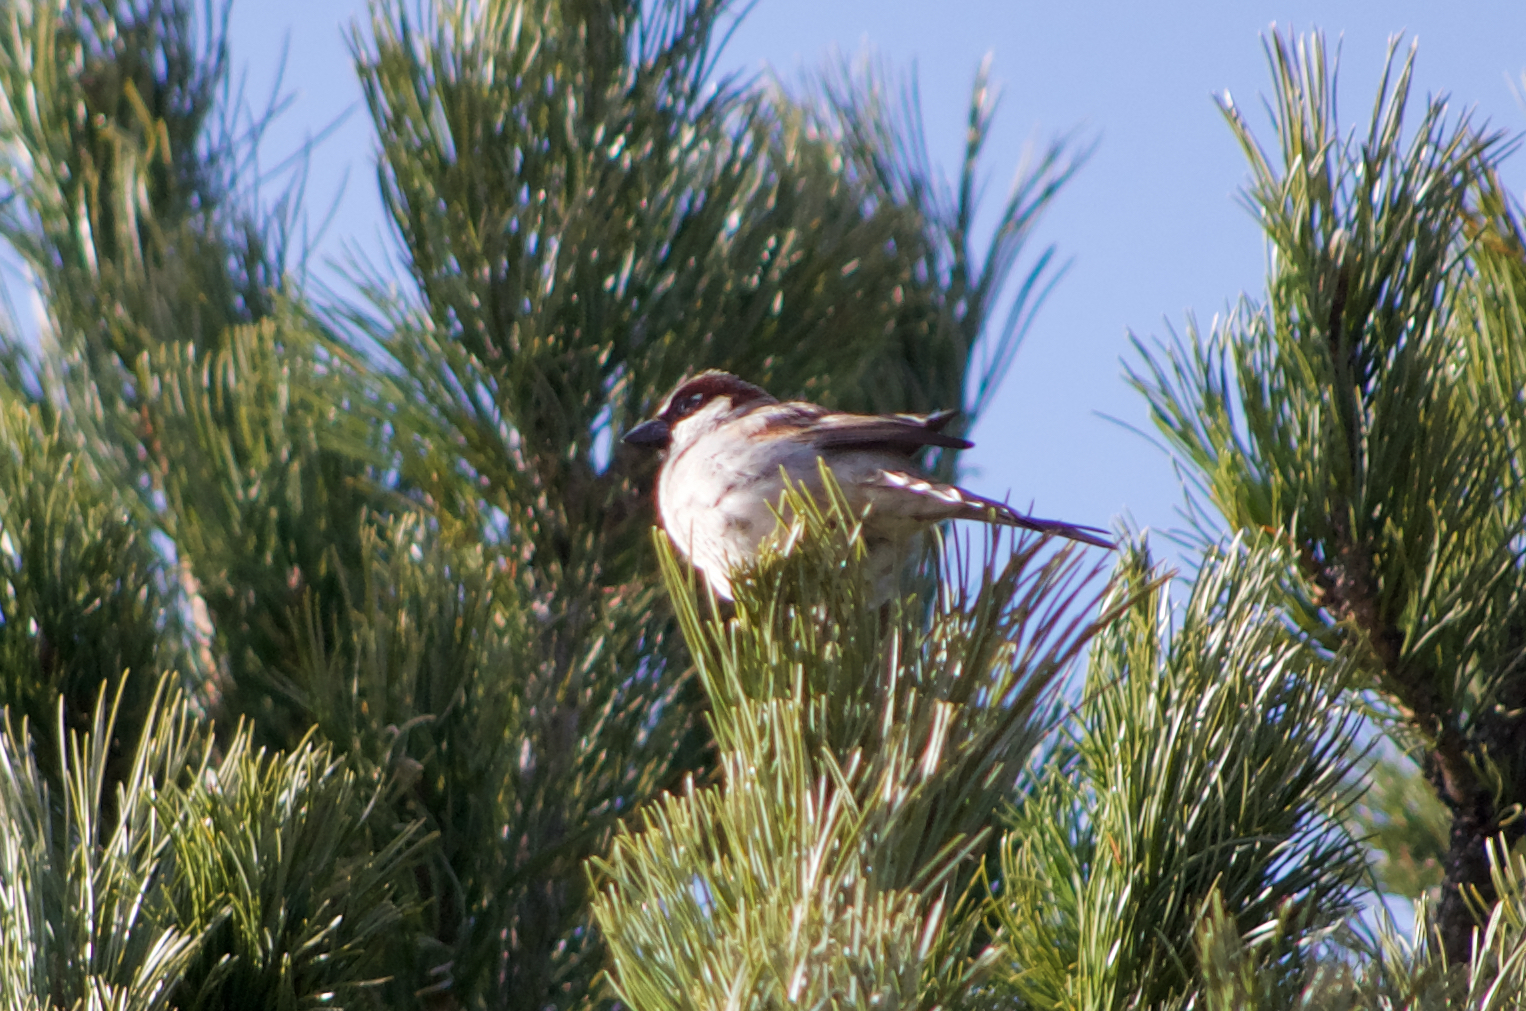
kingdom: Animalia
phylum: Chordata
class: Aves
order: Passeriformes
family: Passeridae
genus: Passer
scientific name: Passer domesticus
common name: House sparrow
